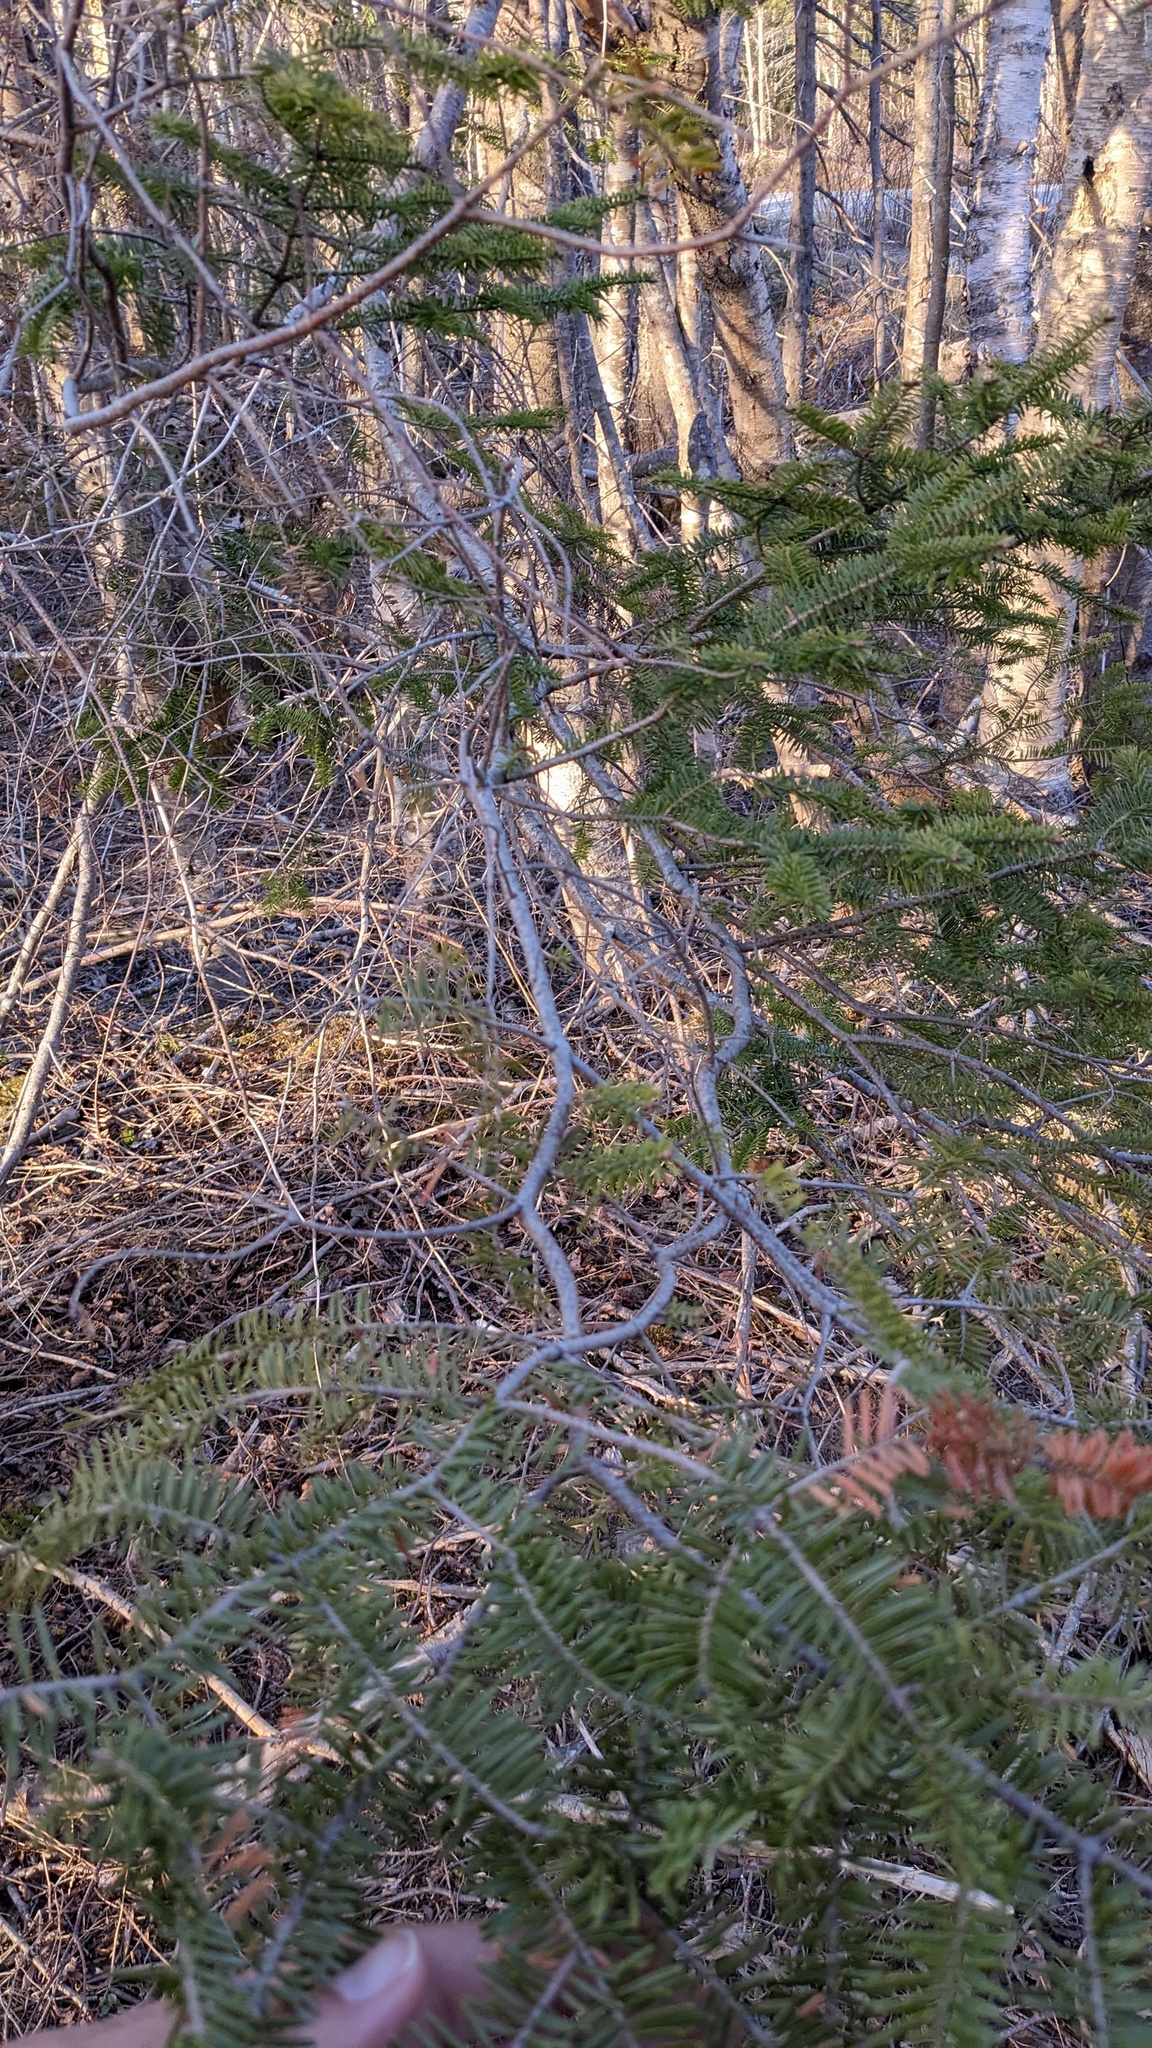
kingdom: Plantae
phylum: Tracheophyta
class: Pinopsida
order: Pinales
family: Pinaceae
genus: Abies
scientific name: Abies balsamea
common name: Balsam fir
